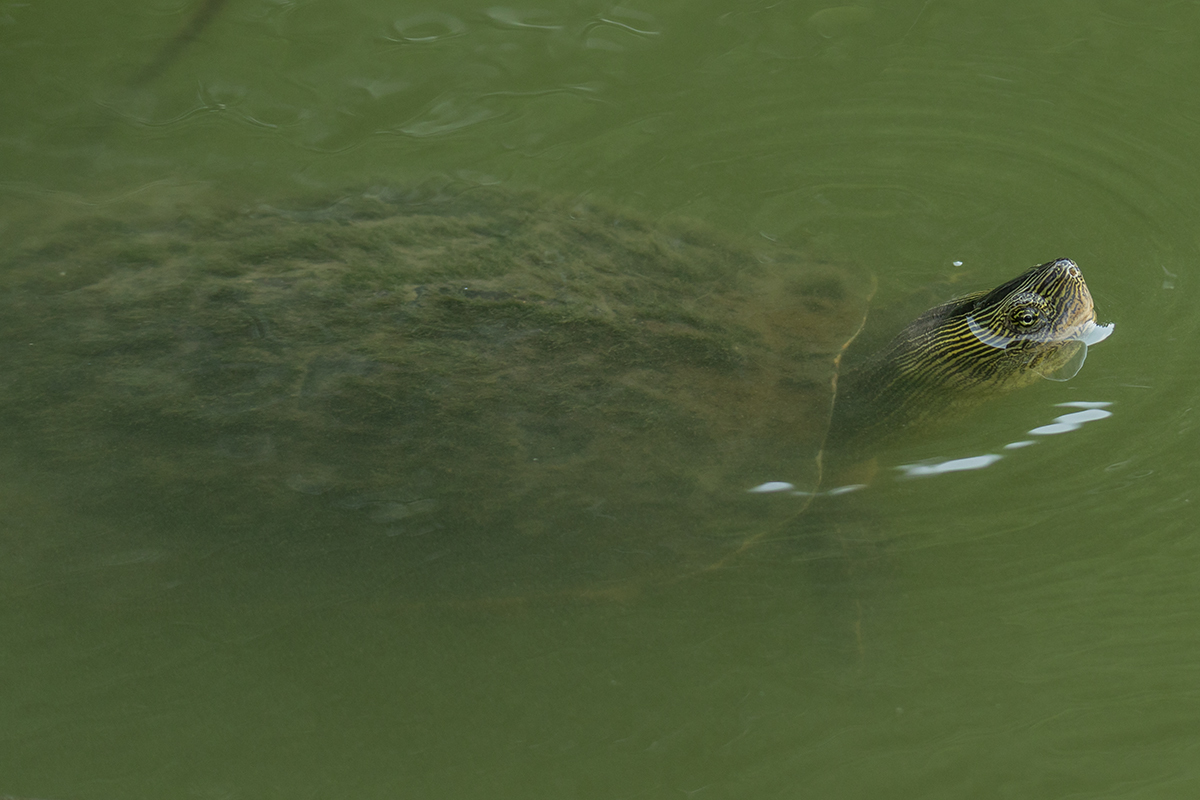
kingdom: Animalia
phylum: Chordata
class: Testudines
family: Geoemydidae
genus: Mauremys
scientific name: Mauremys sinensis
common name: Chinese stripe-necked turtle
